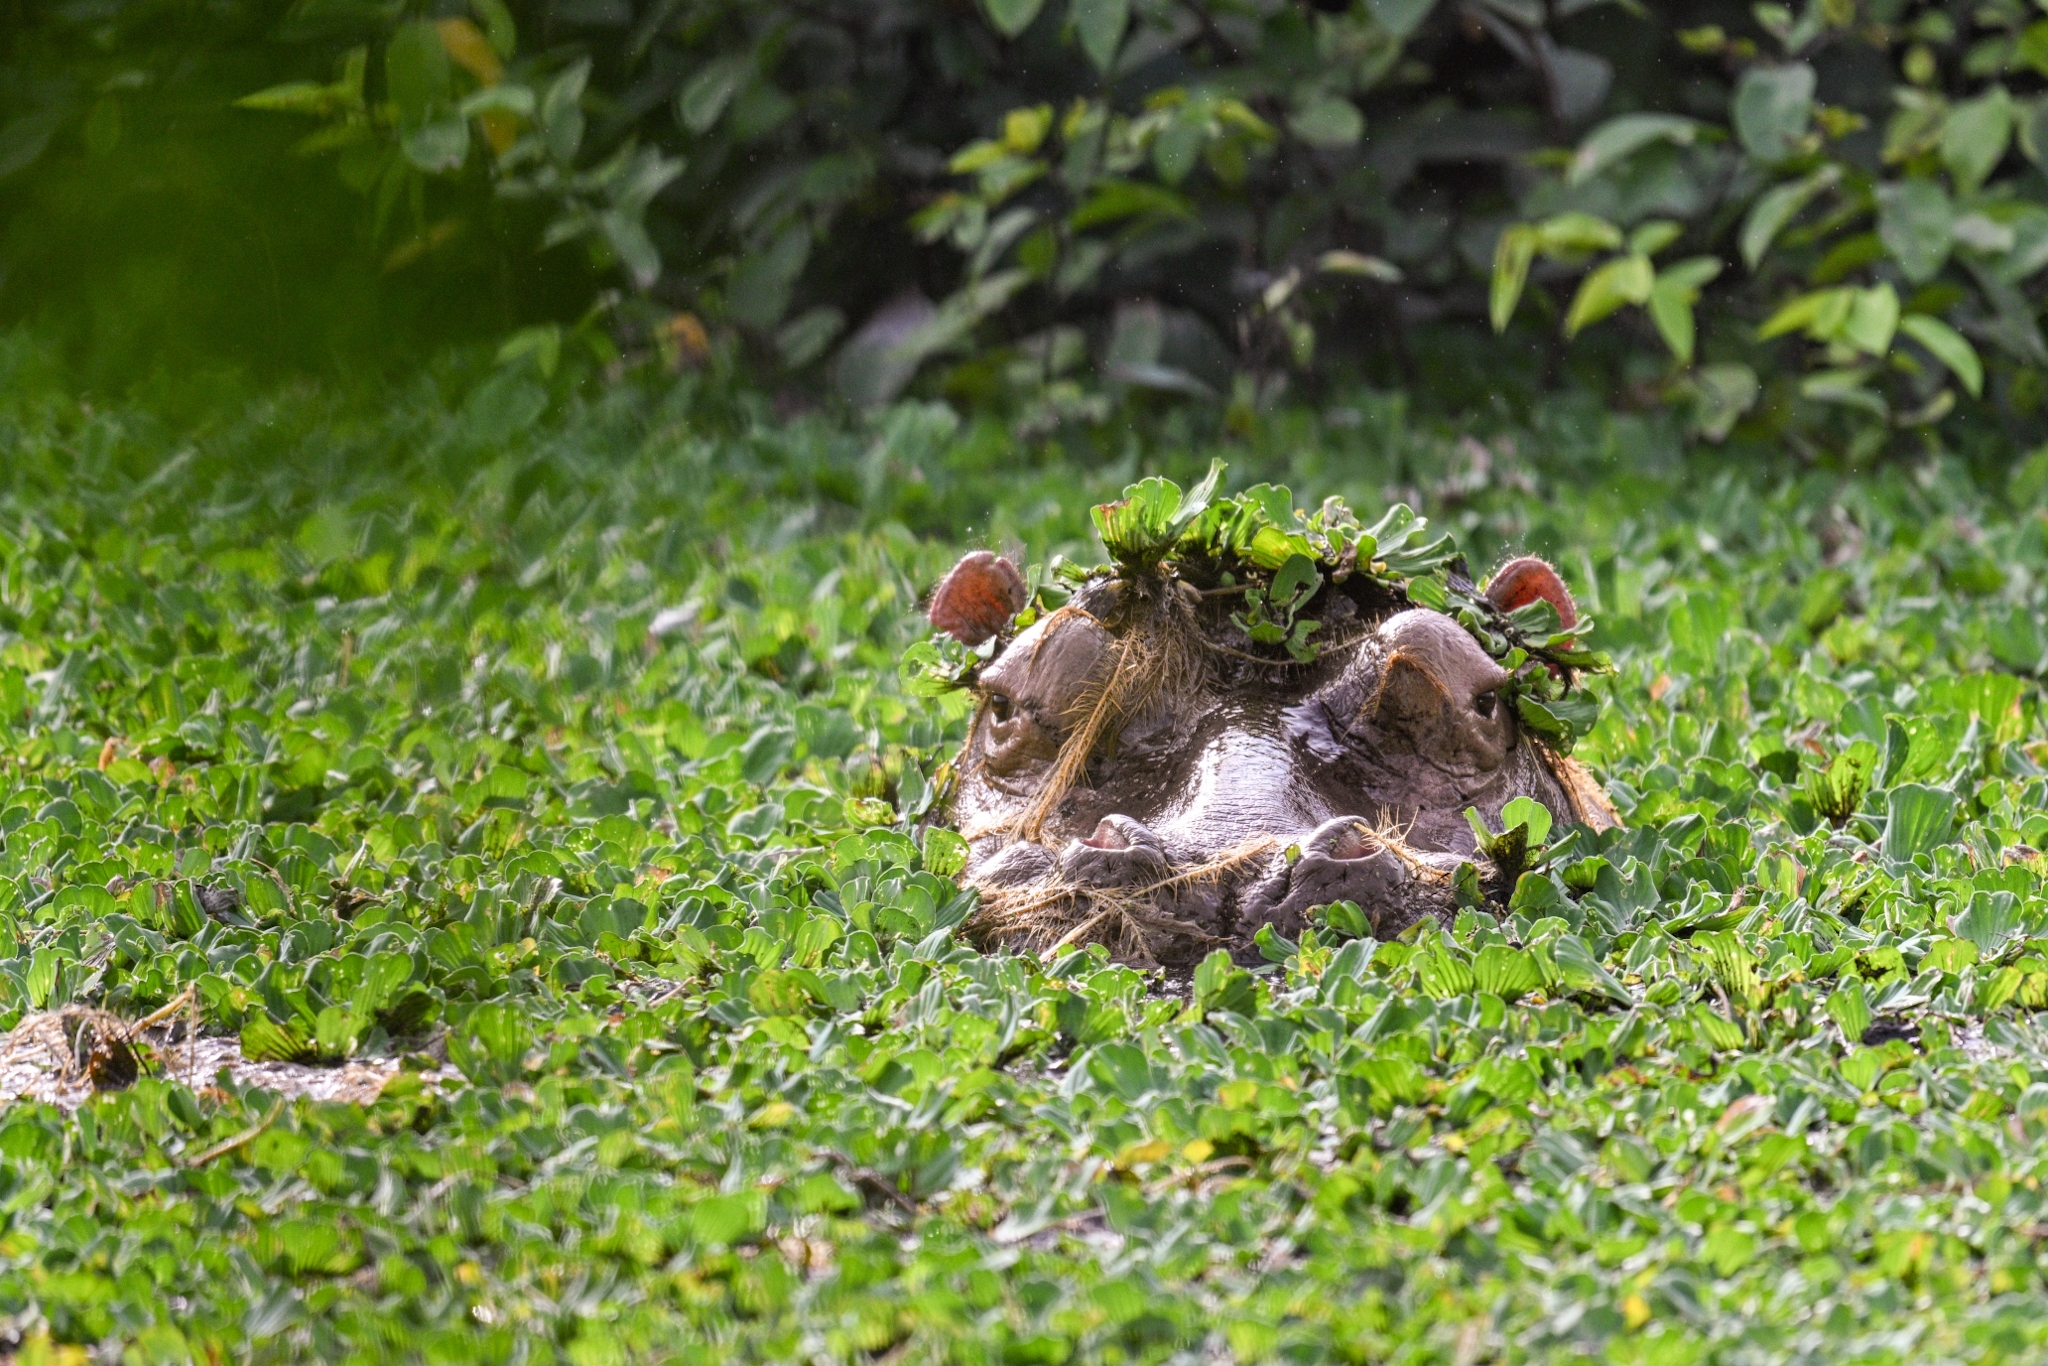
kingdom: Animalia
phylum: Chordata
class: Mammalia
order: Artiodactyla
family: Hippopotamidae
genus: Hippopotamus
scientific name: Hippopotamus amphibius
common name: Common hippopotamus
